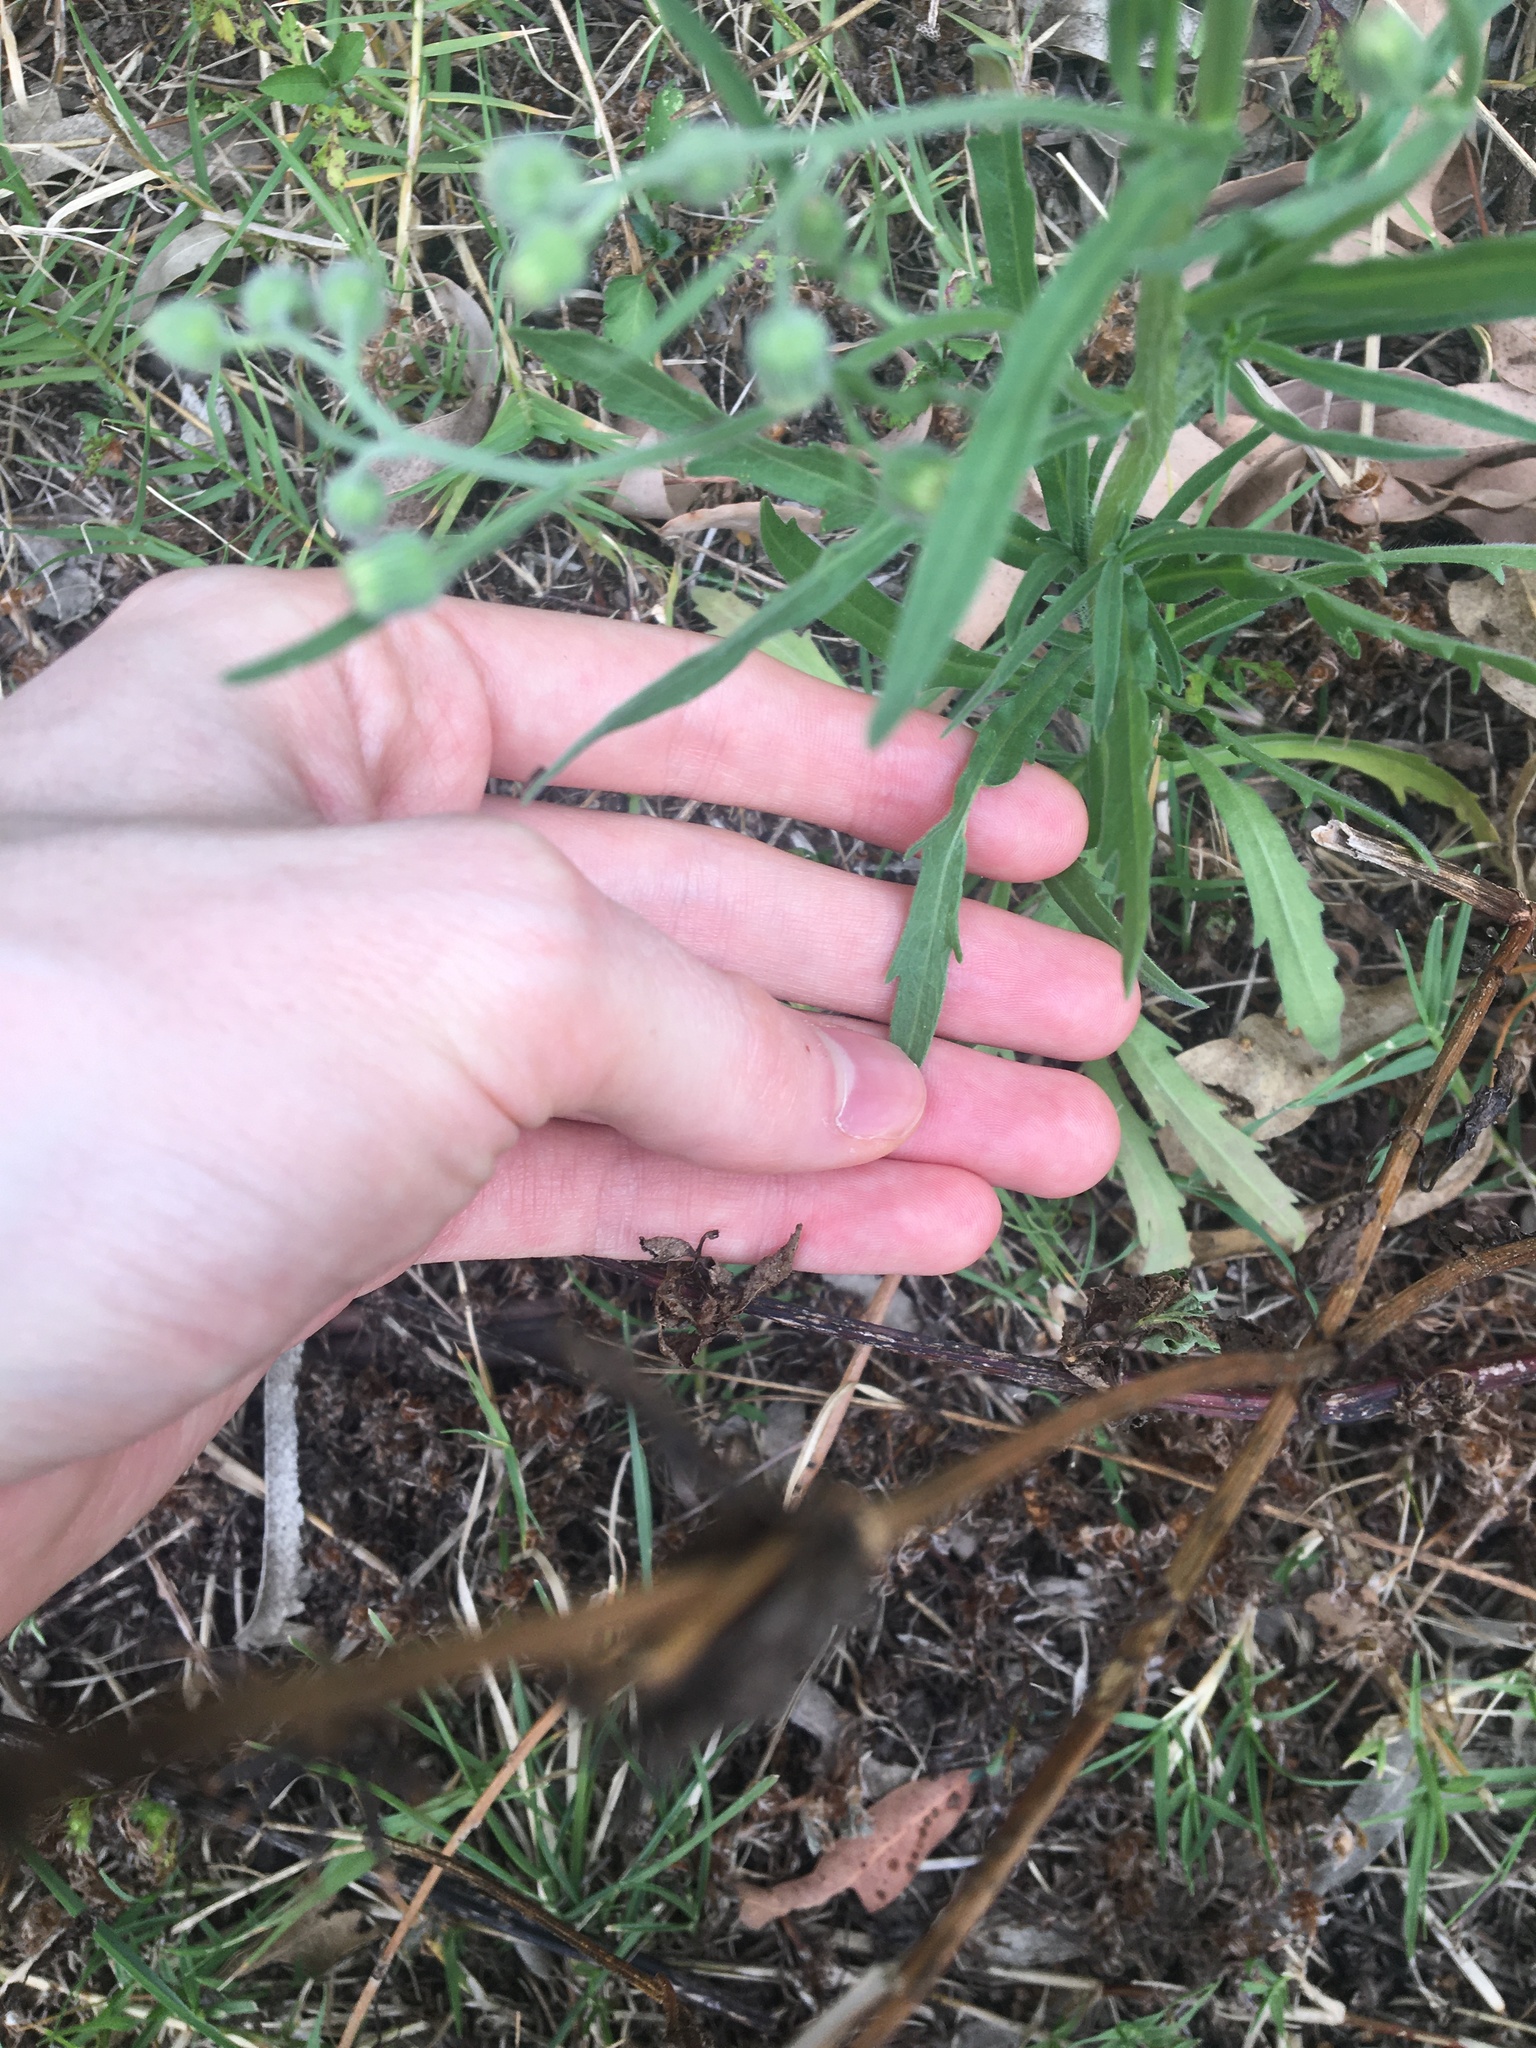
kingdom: Plantae
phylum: Tracheophyta
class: Magnoliopsida
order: Asterales
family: Asteraceae
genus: Erigeron
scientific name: Erigeron bonariensis
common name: Argentine fleabane
